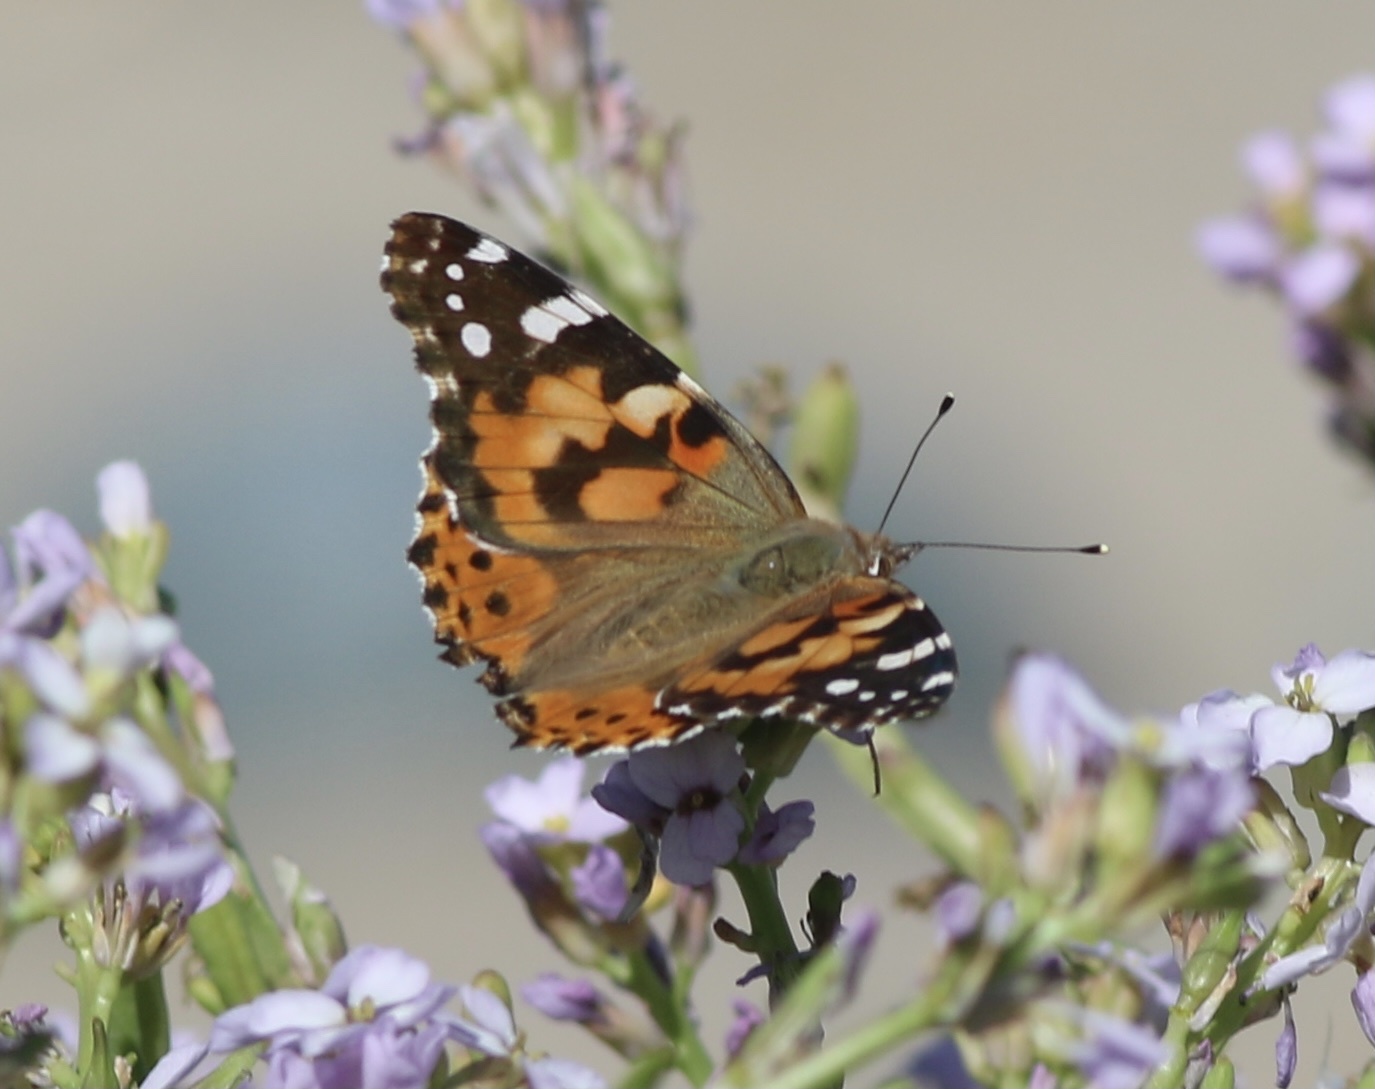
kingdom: Animalia
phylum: Arthropoda
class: Insecta
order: Lepidoptera
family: Nymphalidae
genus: Vanessa
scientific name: Vanessa cardui
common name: Painted lady
